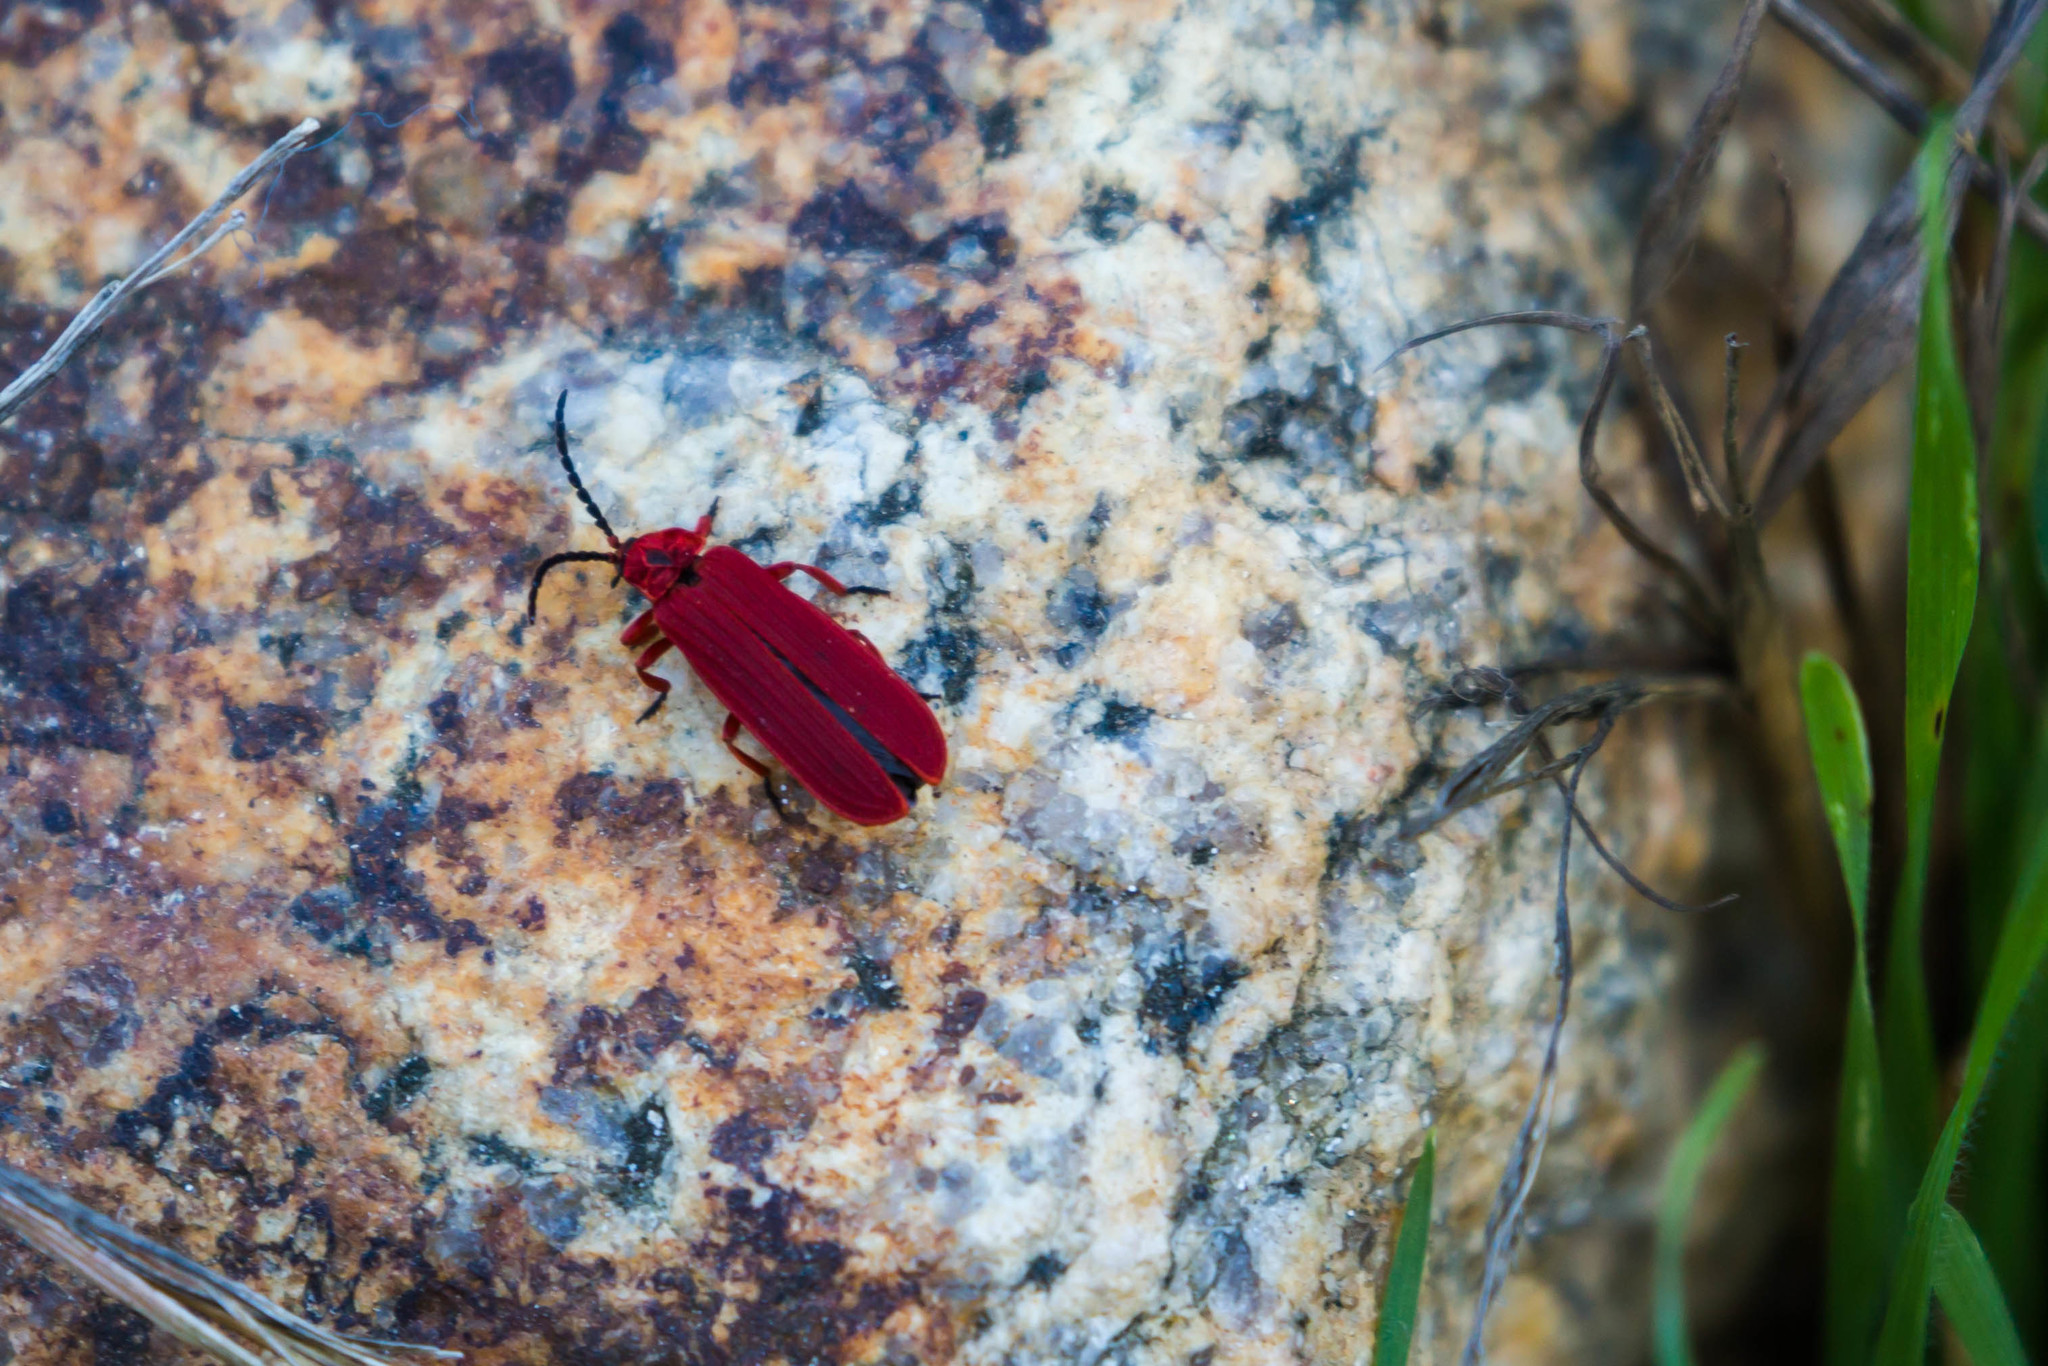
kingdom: Animalia
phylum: Arthropoda
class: Insecta
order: Coleoptera
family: Lycidae
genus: Dictyoptera
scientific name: Dictyoptera simplicipes
